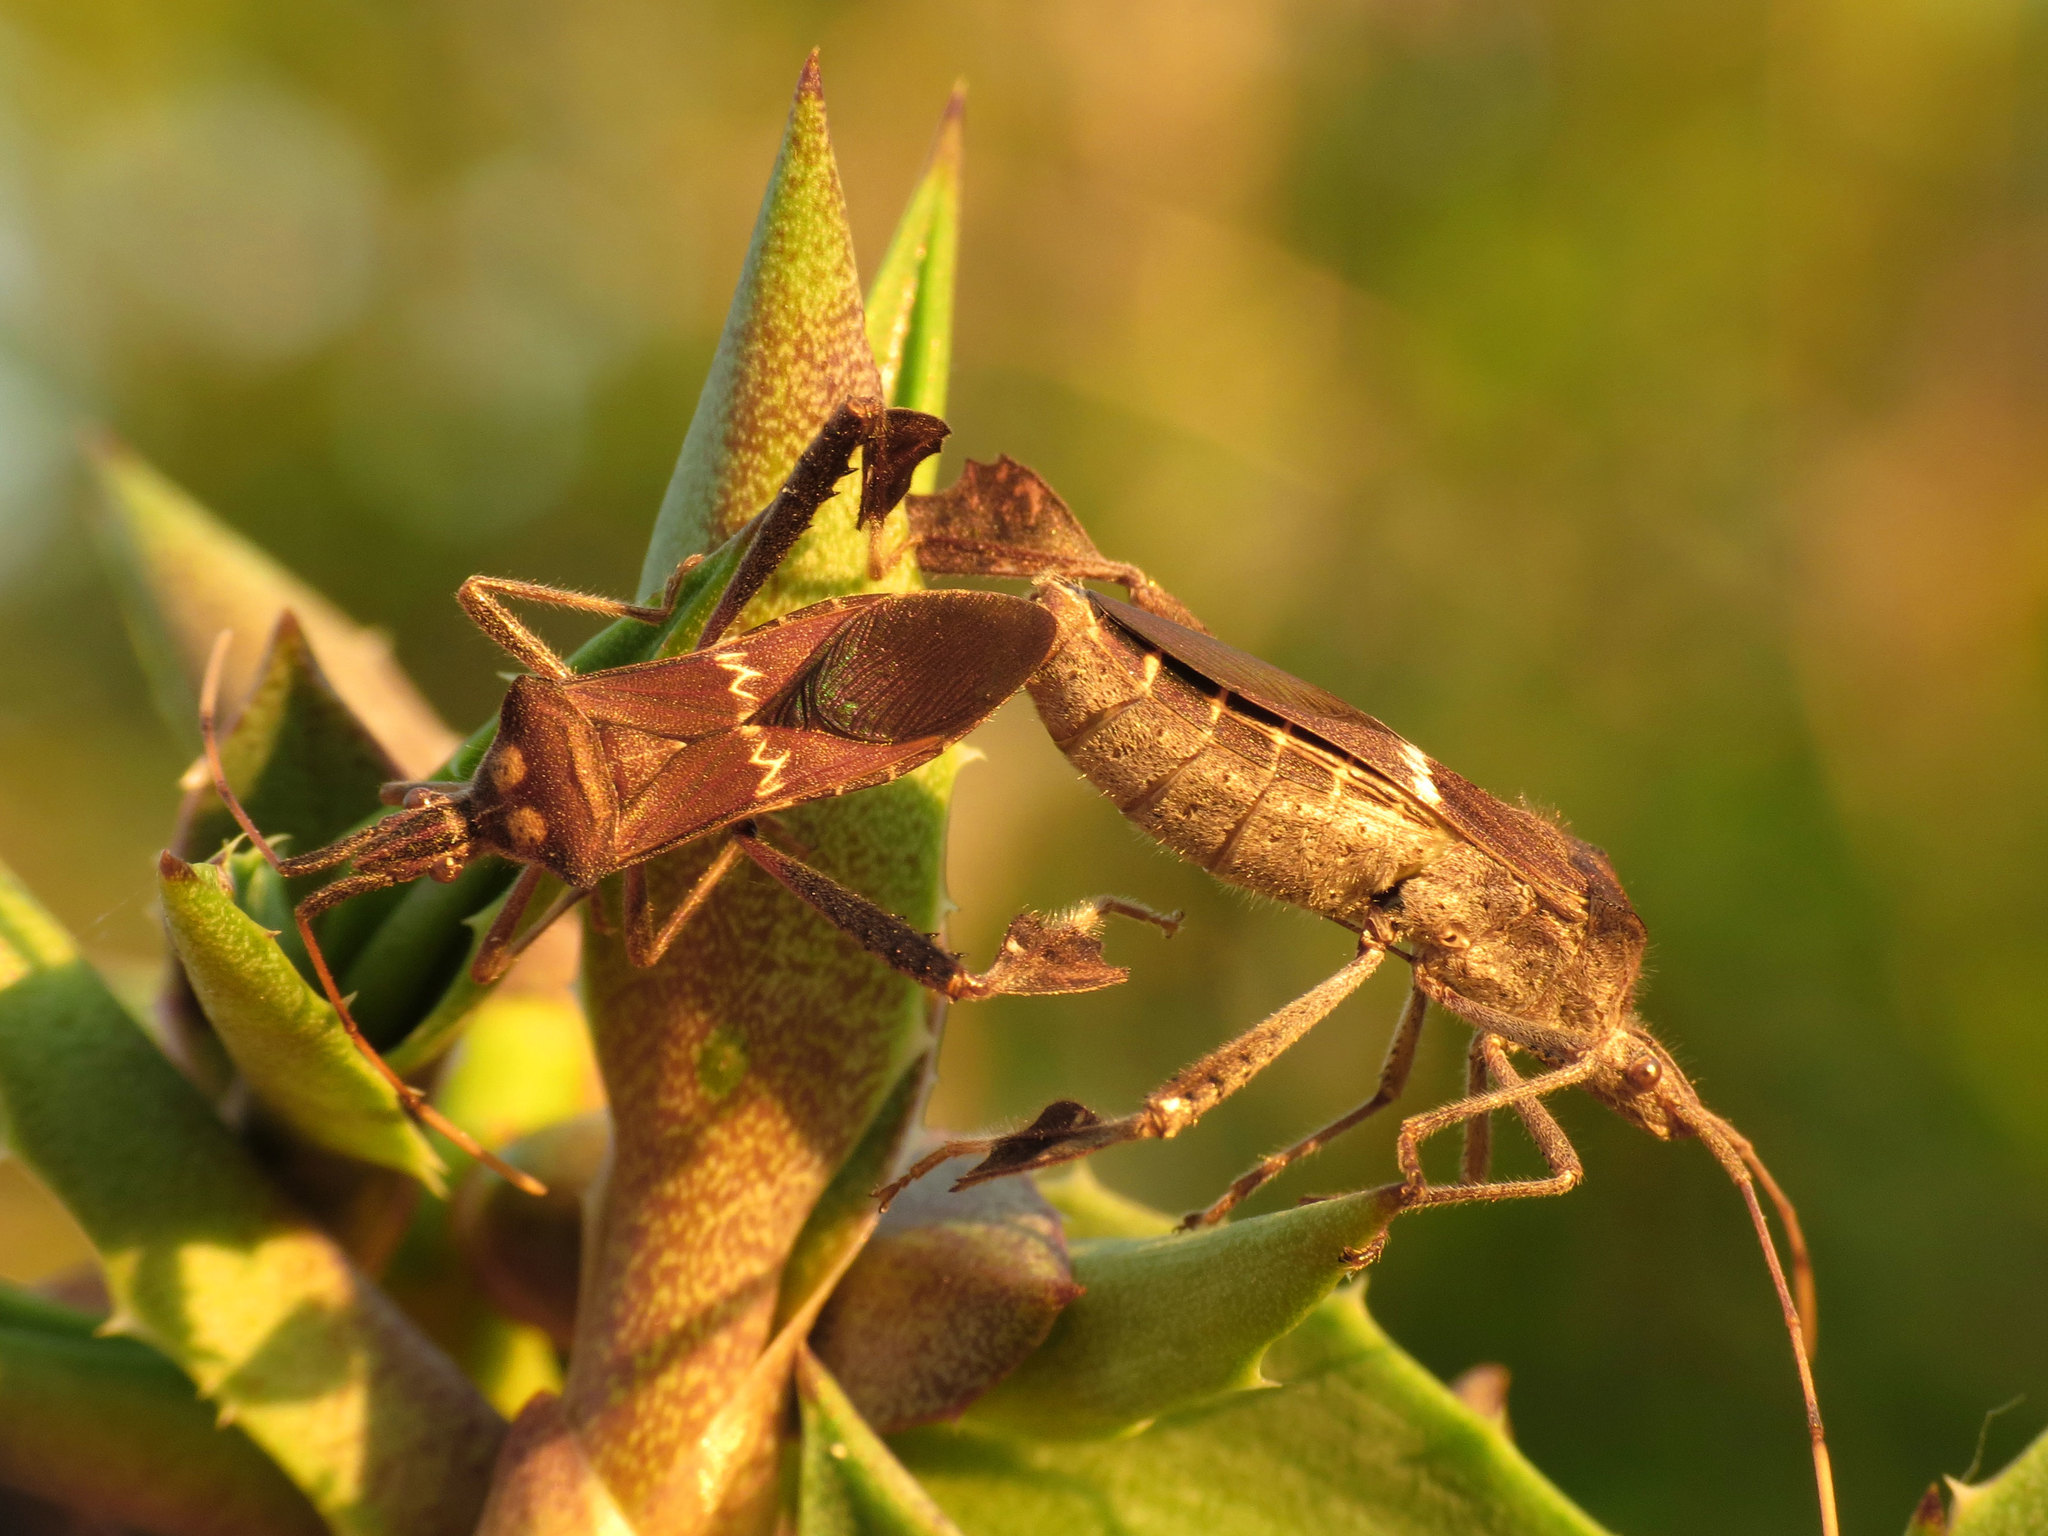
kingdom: Animalia
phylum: Arthropoda
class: Insecta
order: Hemiptera
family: Coreidae
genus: Leptoglossus
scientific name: Leptoglossus zonatus
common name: Large-legged bug
